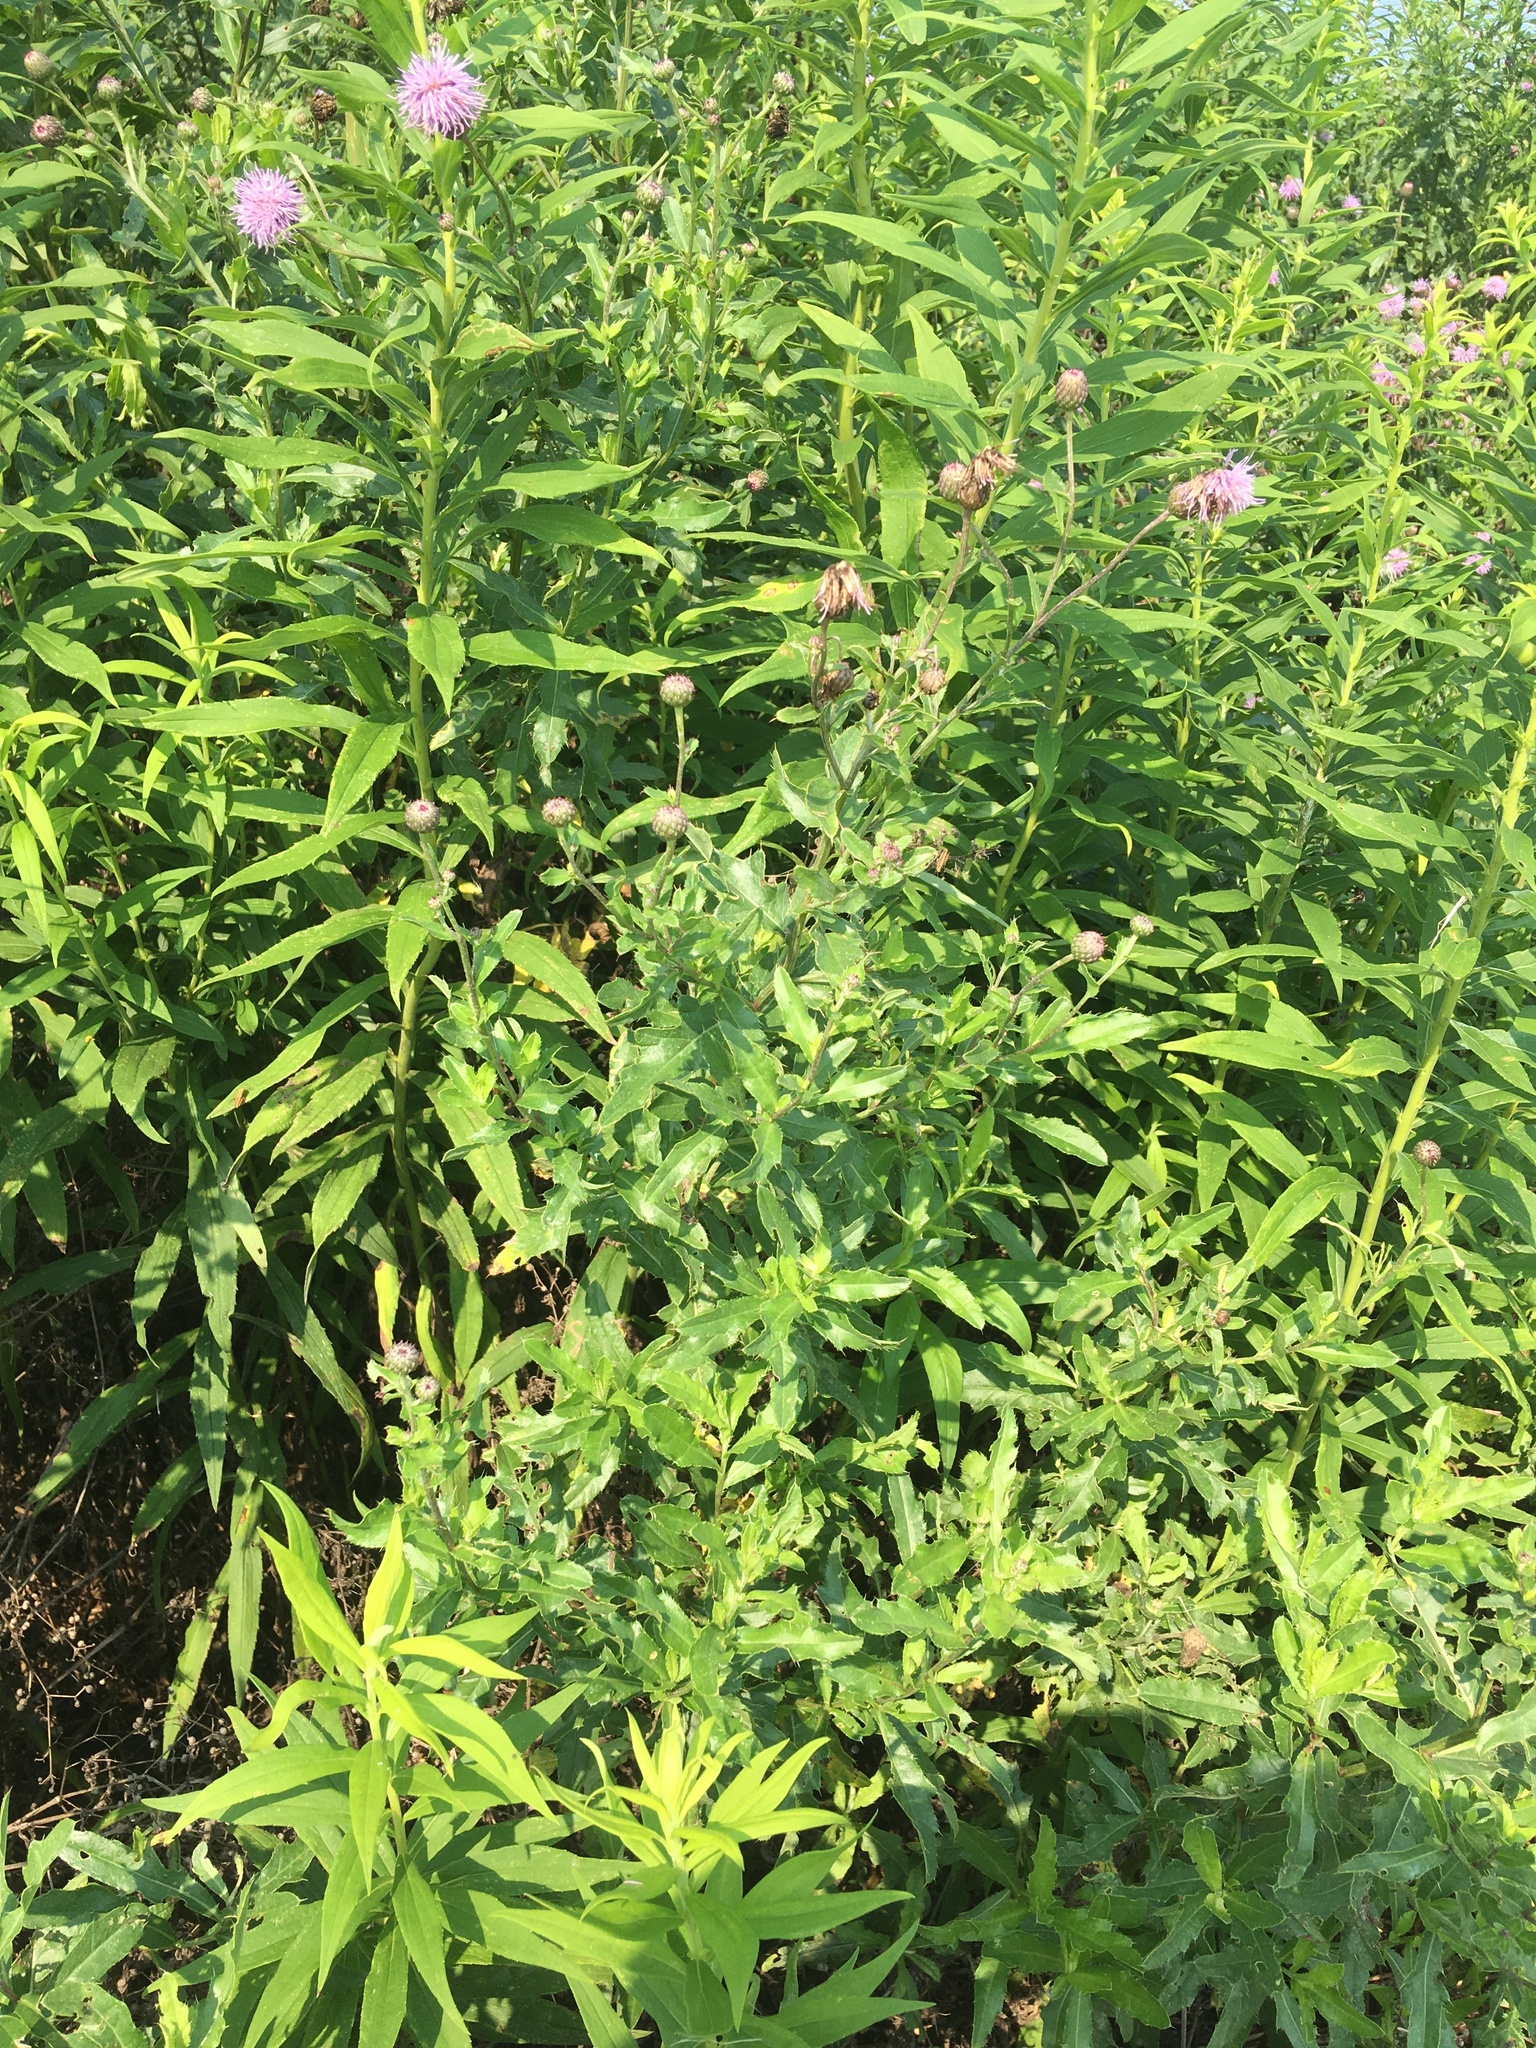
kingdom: Plantae
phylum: Tracheophyta
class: Magnoliopsida
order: Asterales
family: Asteraceae
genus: Cirsium
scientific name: Cirsium arvense
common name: Creeping thistle
